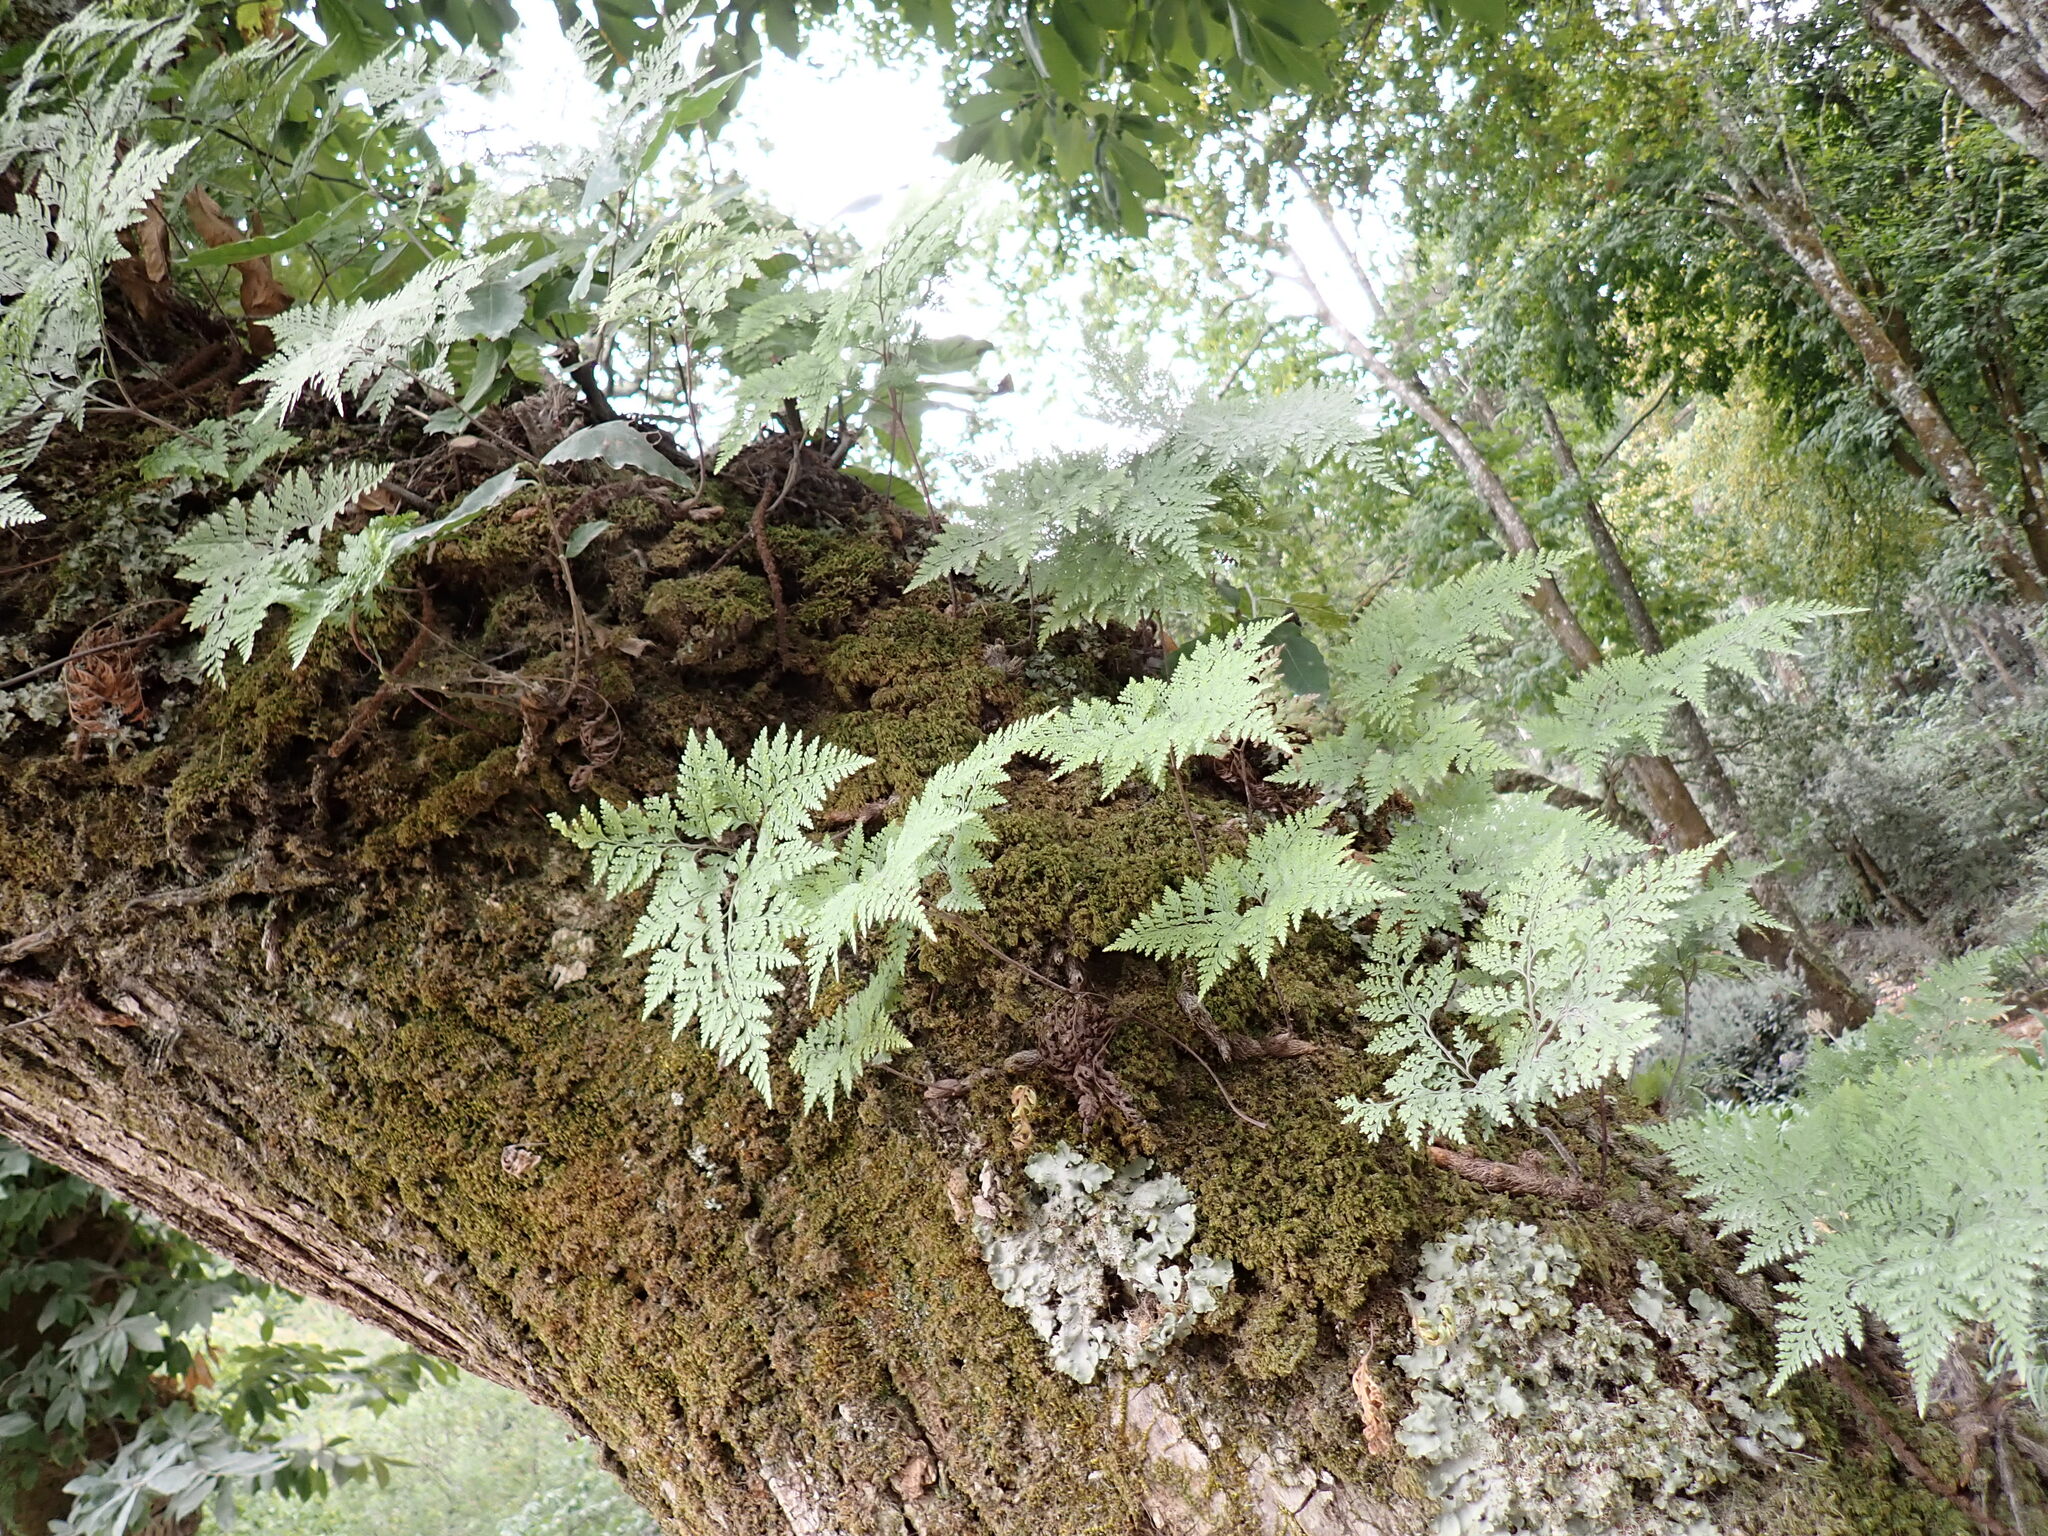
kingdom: Plantae
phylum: Tracheophyta
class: Polypodiopsida
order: Polypodiales
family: Davalliaceae
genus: Davallia
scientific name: Davallia canariensis
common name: Hare's-foot fern
